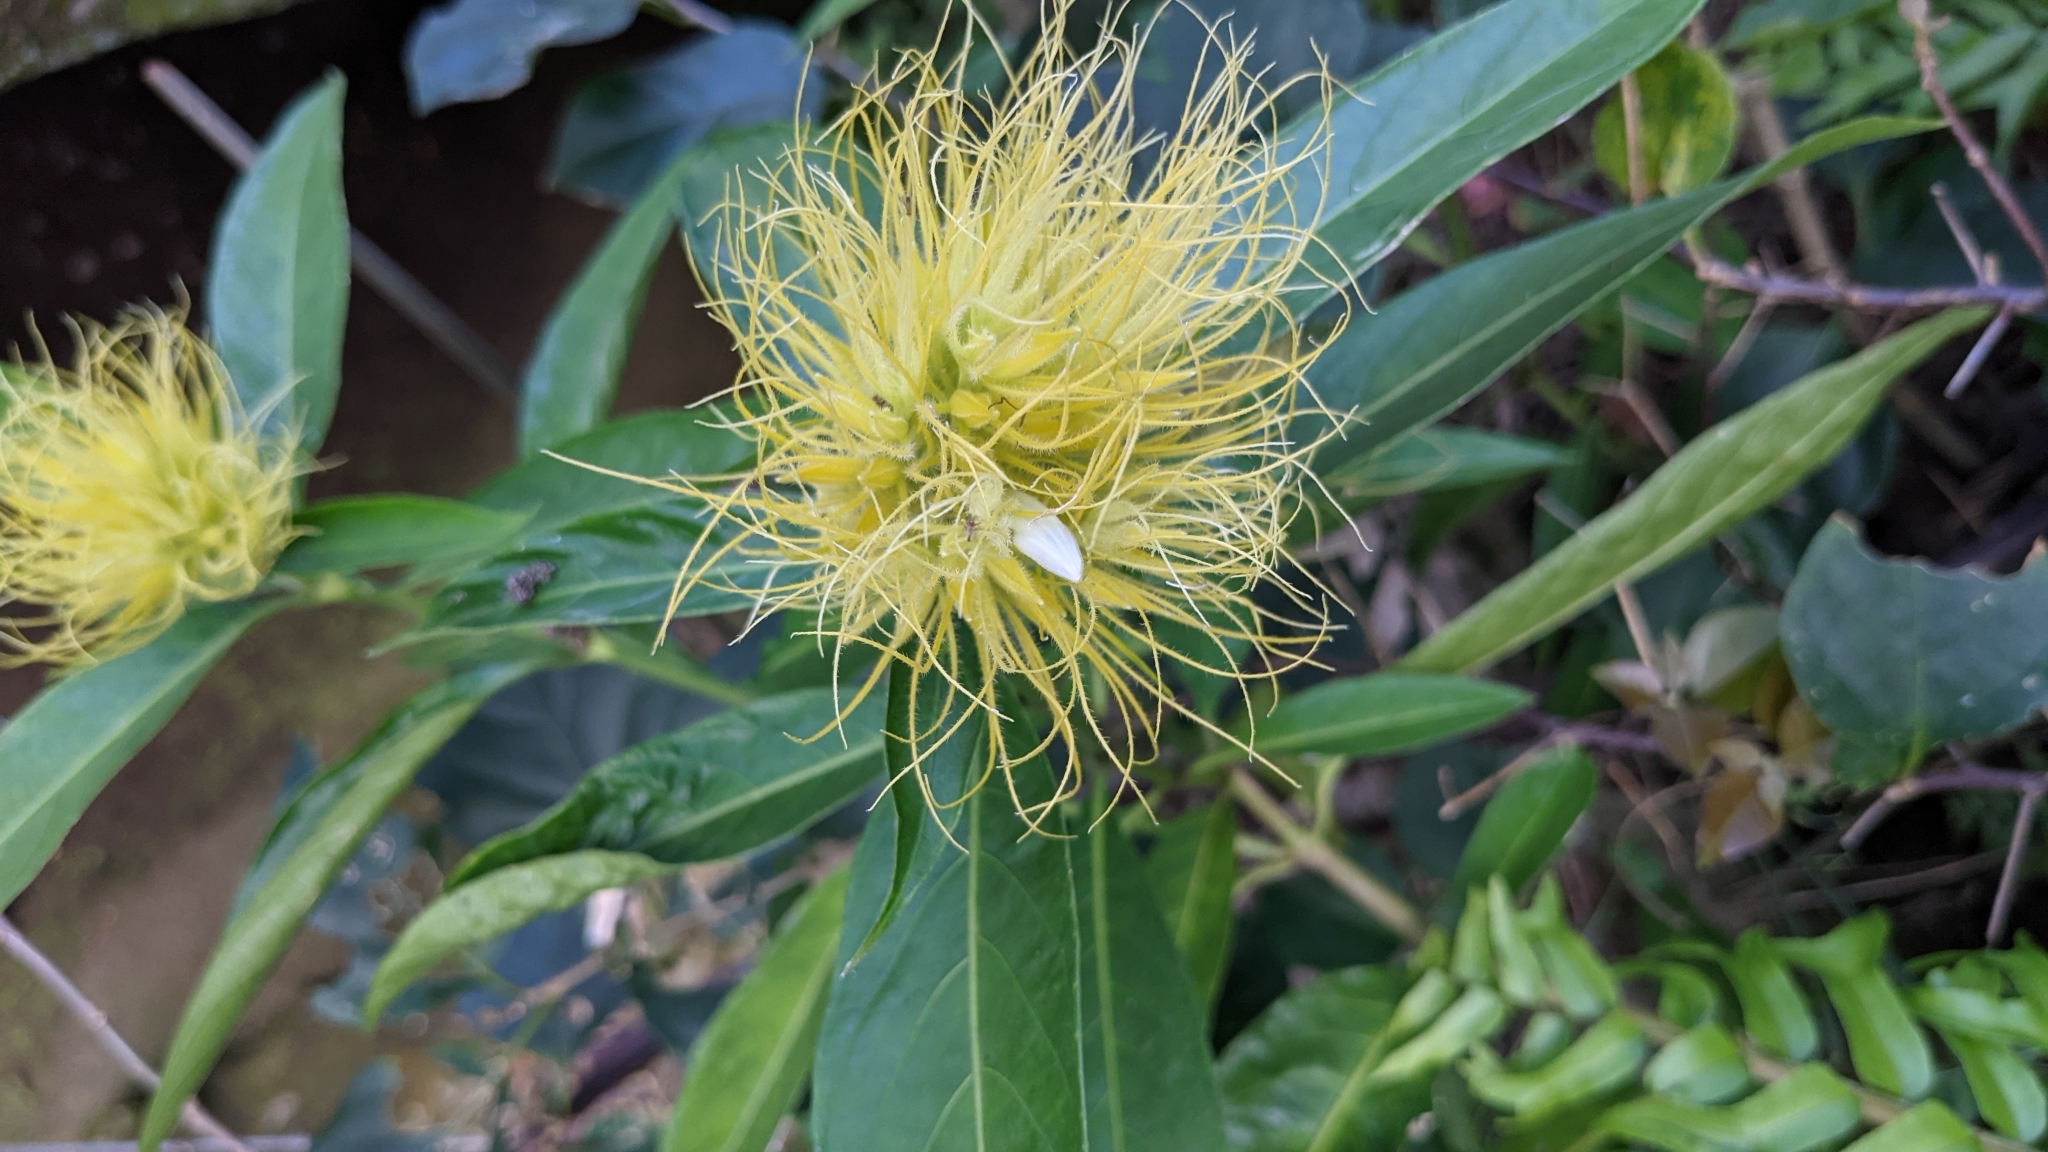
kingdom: Plantae
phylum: Tracheophyta
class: Magnoliopsida
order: Lamiales
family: Acanthaceae
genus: Justicia
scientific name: Justicia croceochlamys
